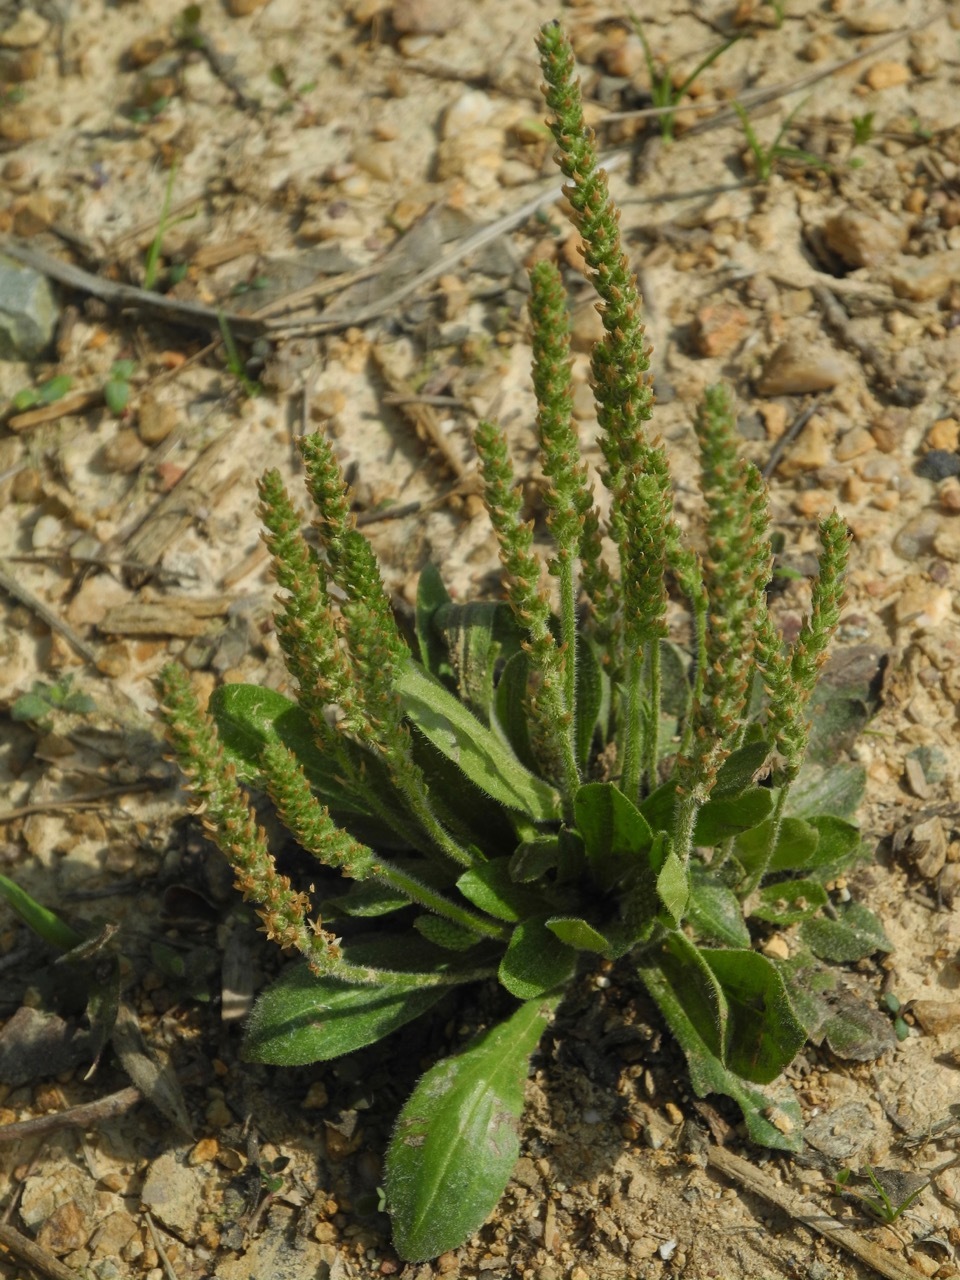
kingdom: Plantae
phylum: Tracheophyta
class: Magnoliopsida
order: Lamiales
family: Plantaginaceae
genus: Plantago
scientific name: Plantago virginica
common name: Hoary plantain
